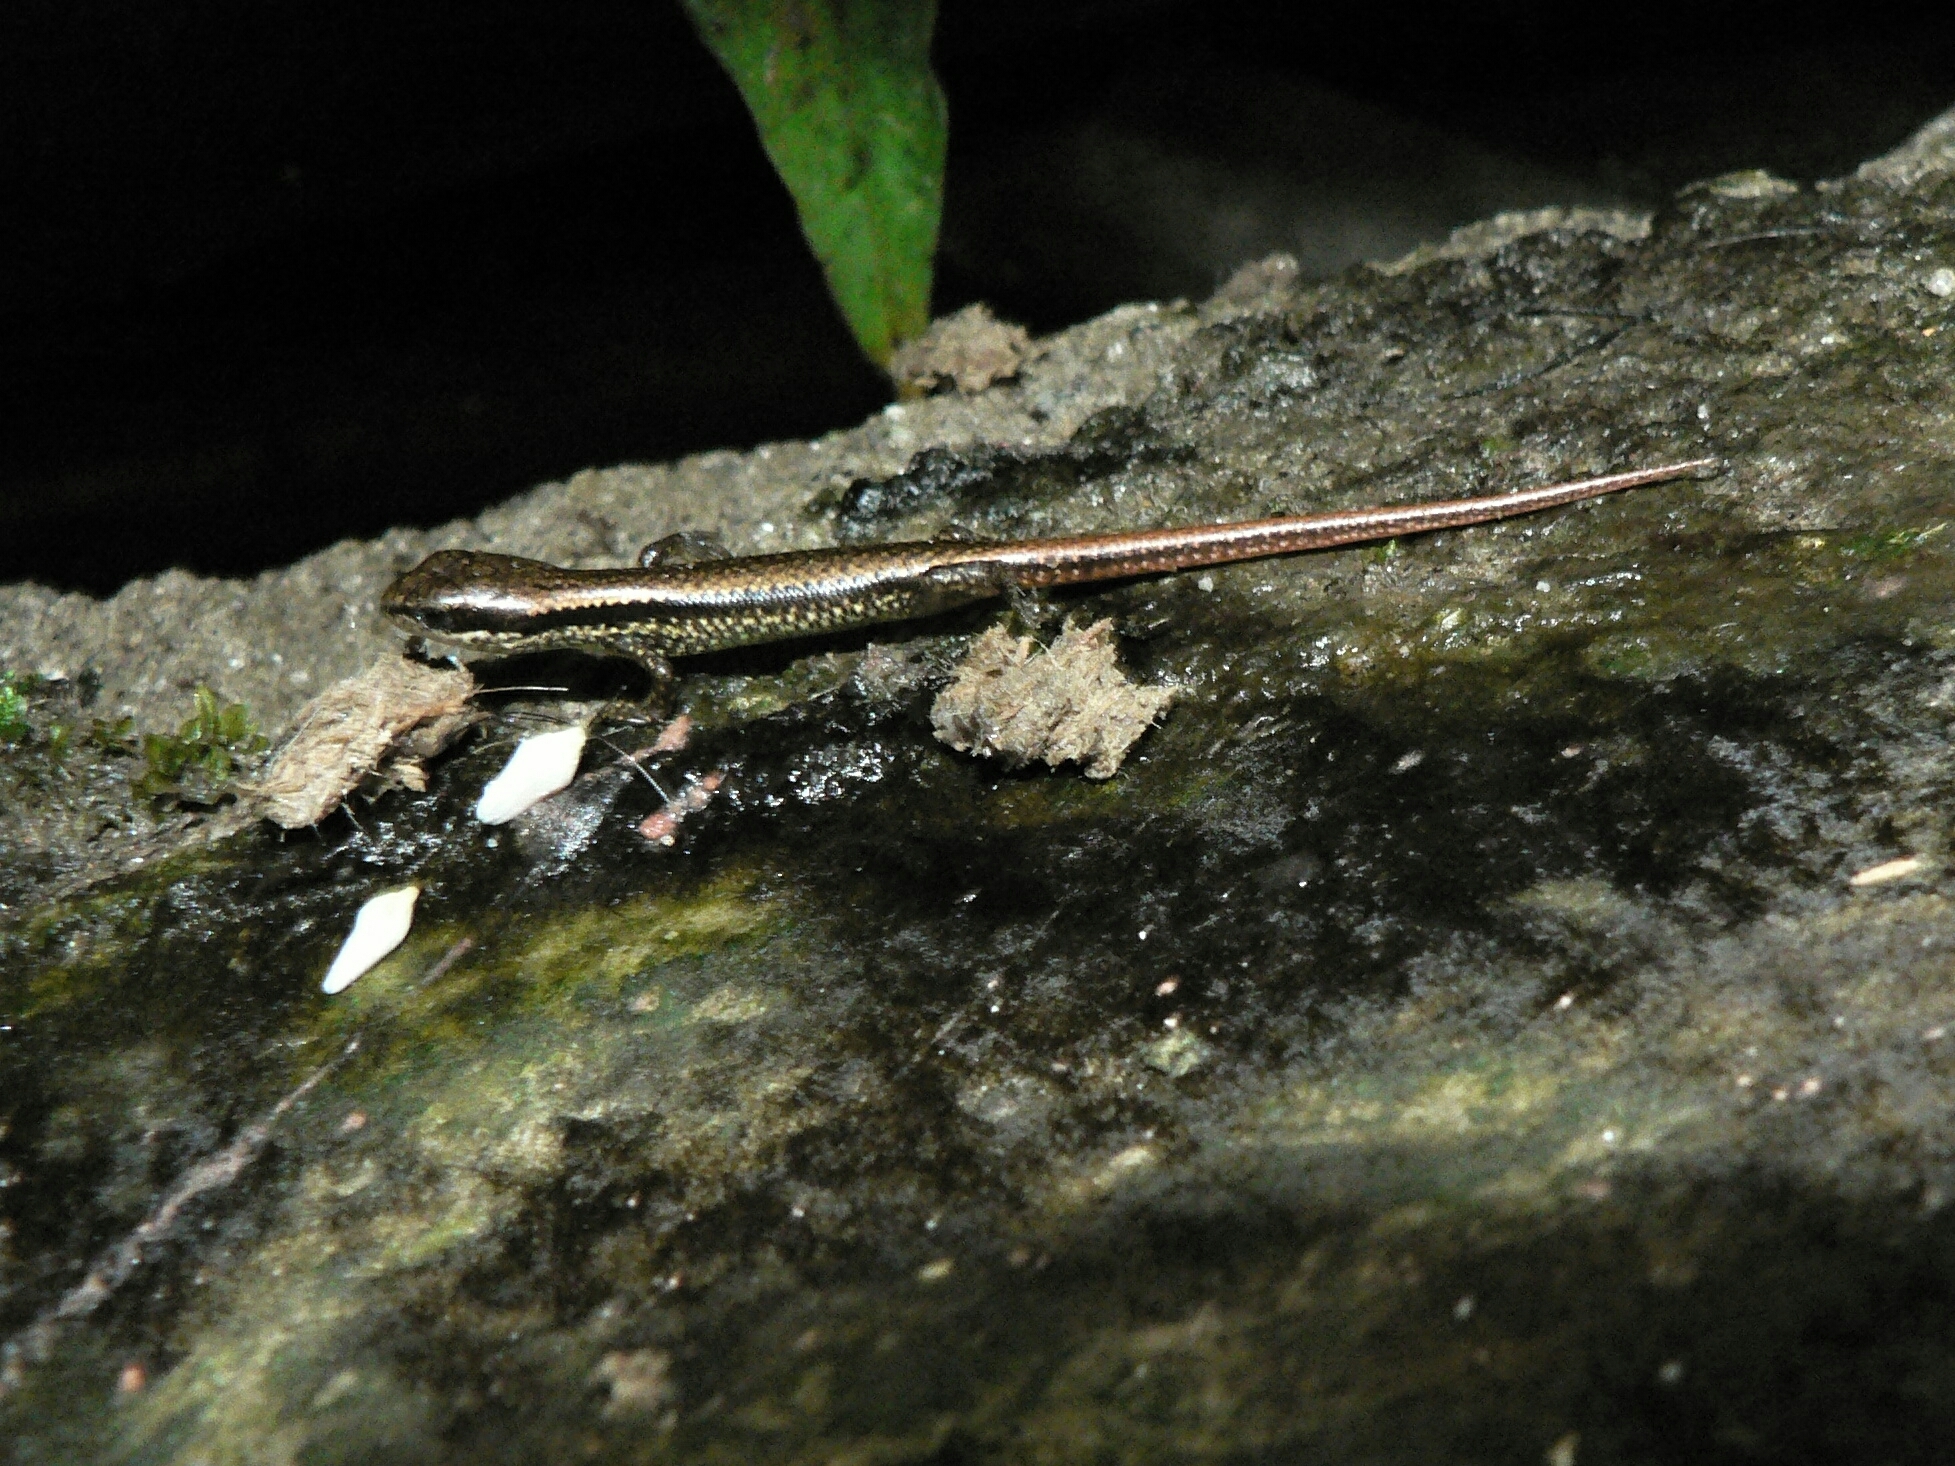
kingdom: Animalia
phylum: Chordata
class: Squamata
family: Scincidae
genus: Sphenomorphus
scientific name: Sphenomorphus indicus
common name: Himalayan forest skink
